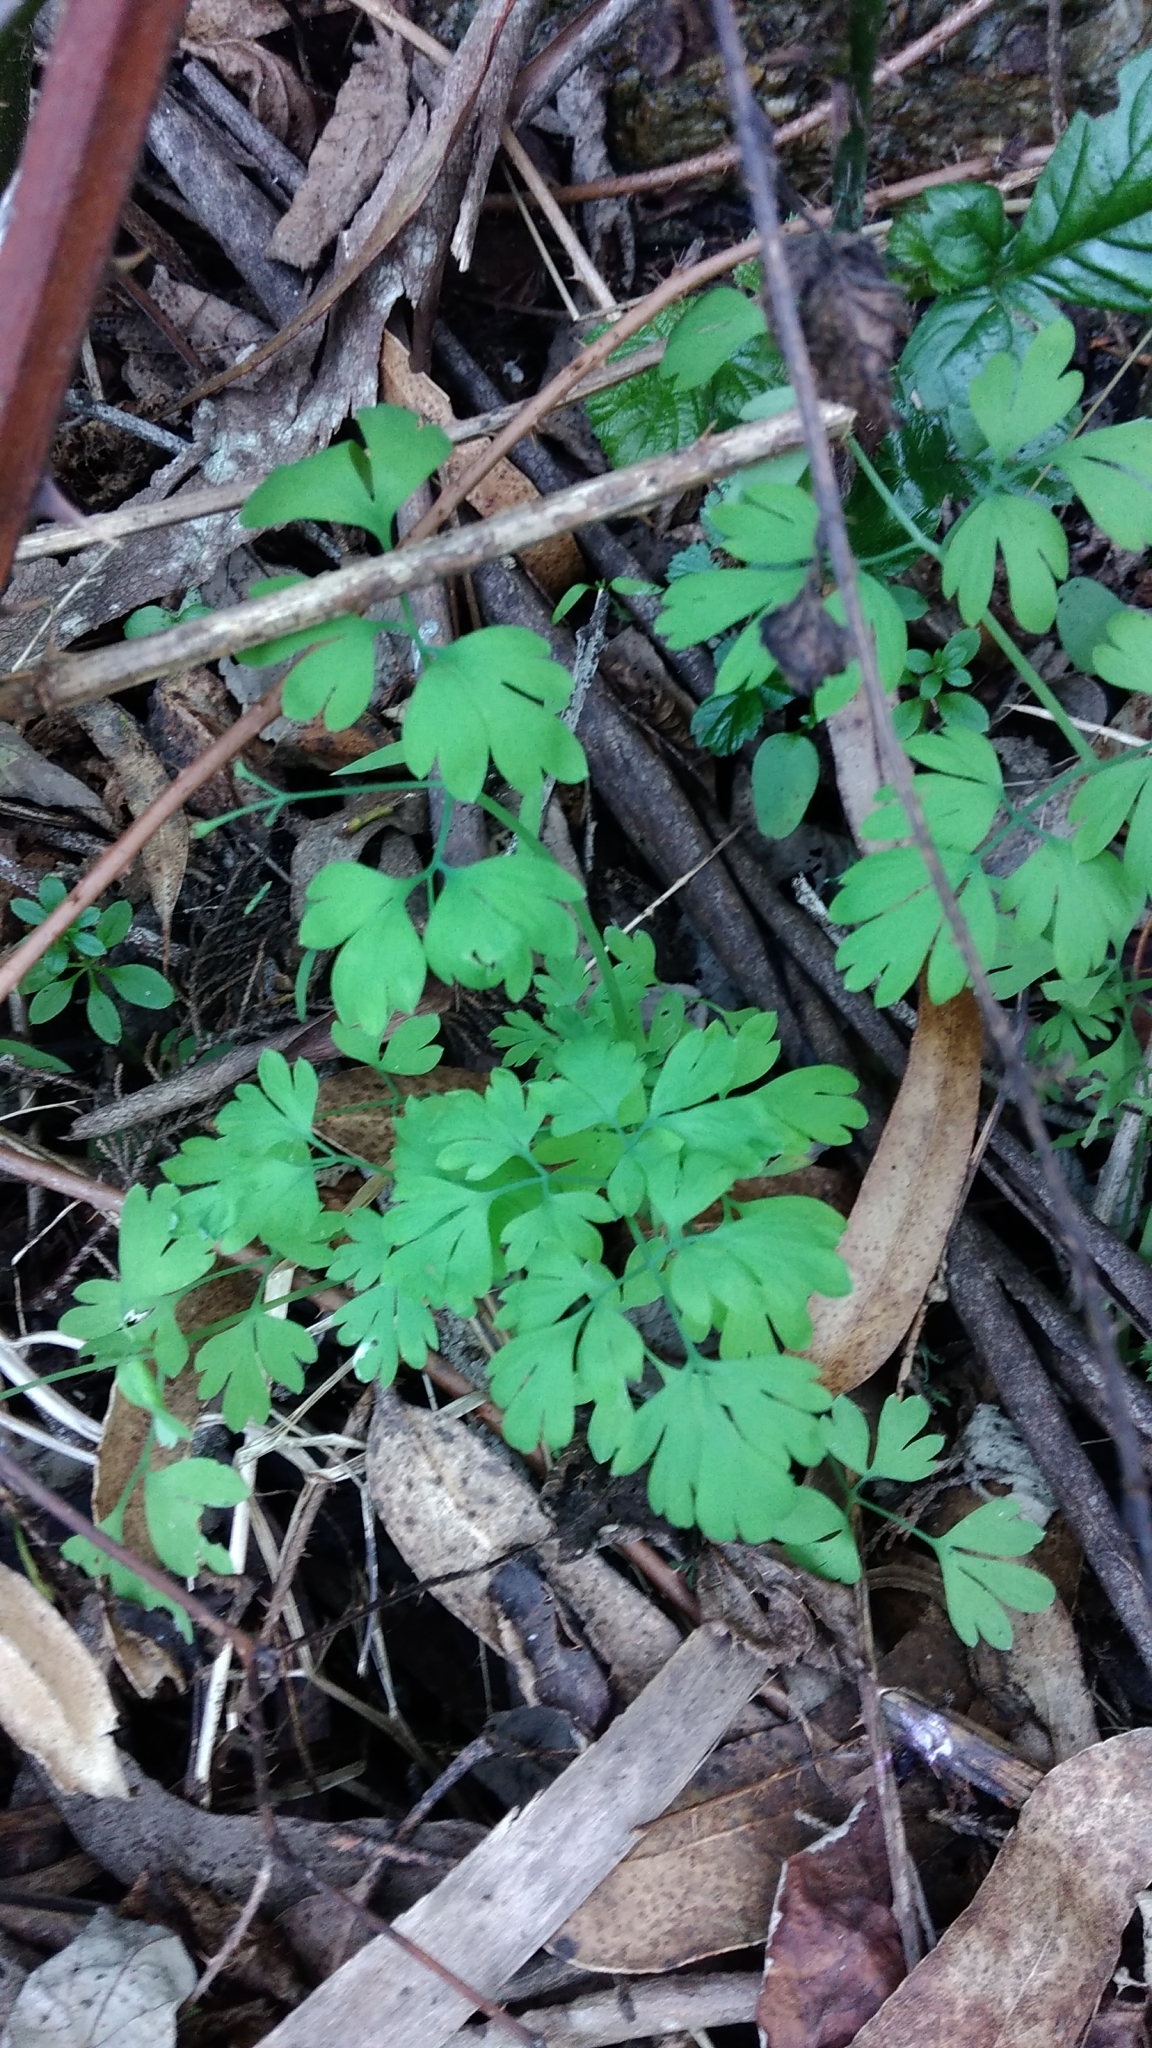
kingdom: Plantae
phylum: Tracheophyta
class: Magnoliopsida
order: Ranunculales
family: Papaveraceae
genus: Fumaria
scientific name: Fumaria
